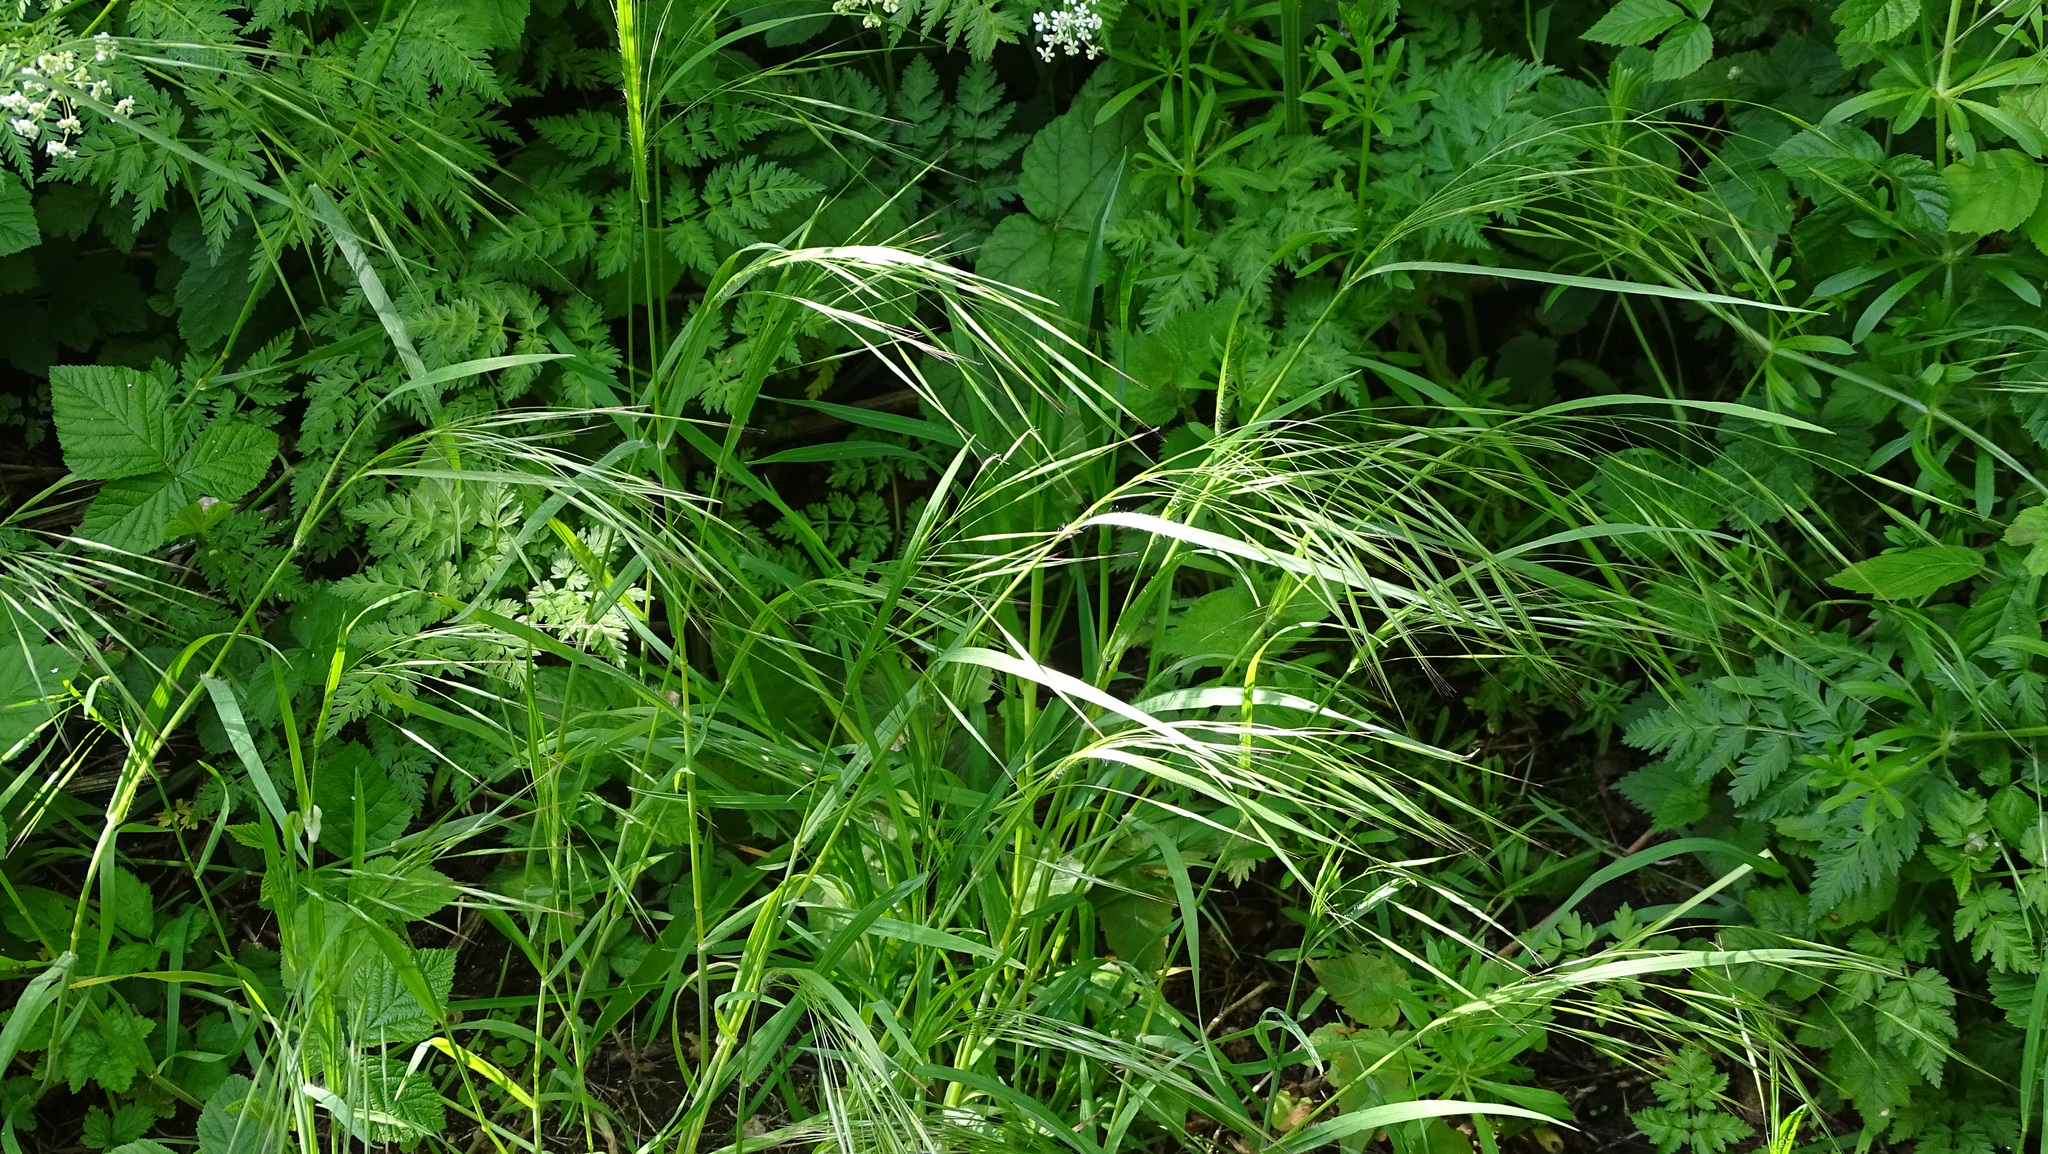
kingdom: Plantae
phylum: Tracheophyta
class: Liliopsida
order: Poales
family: Poaceae
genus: Bromus
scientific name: Bromus sterilis
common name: Poverty brome
